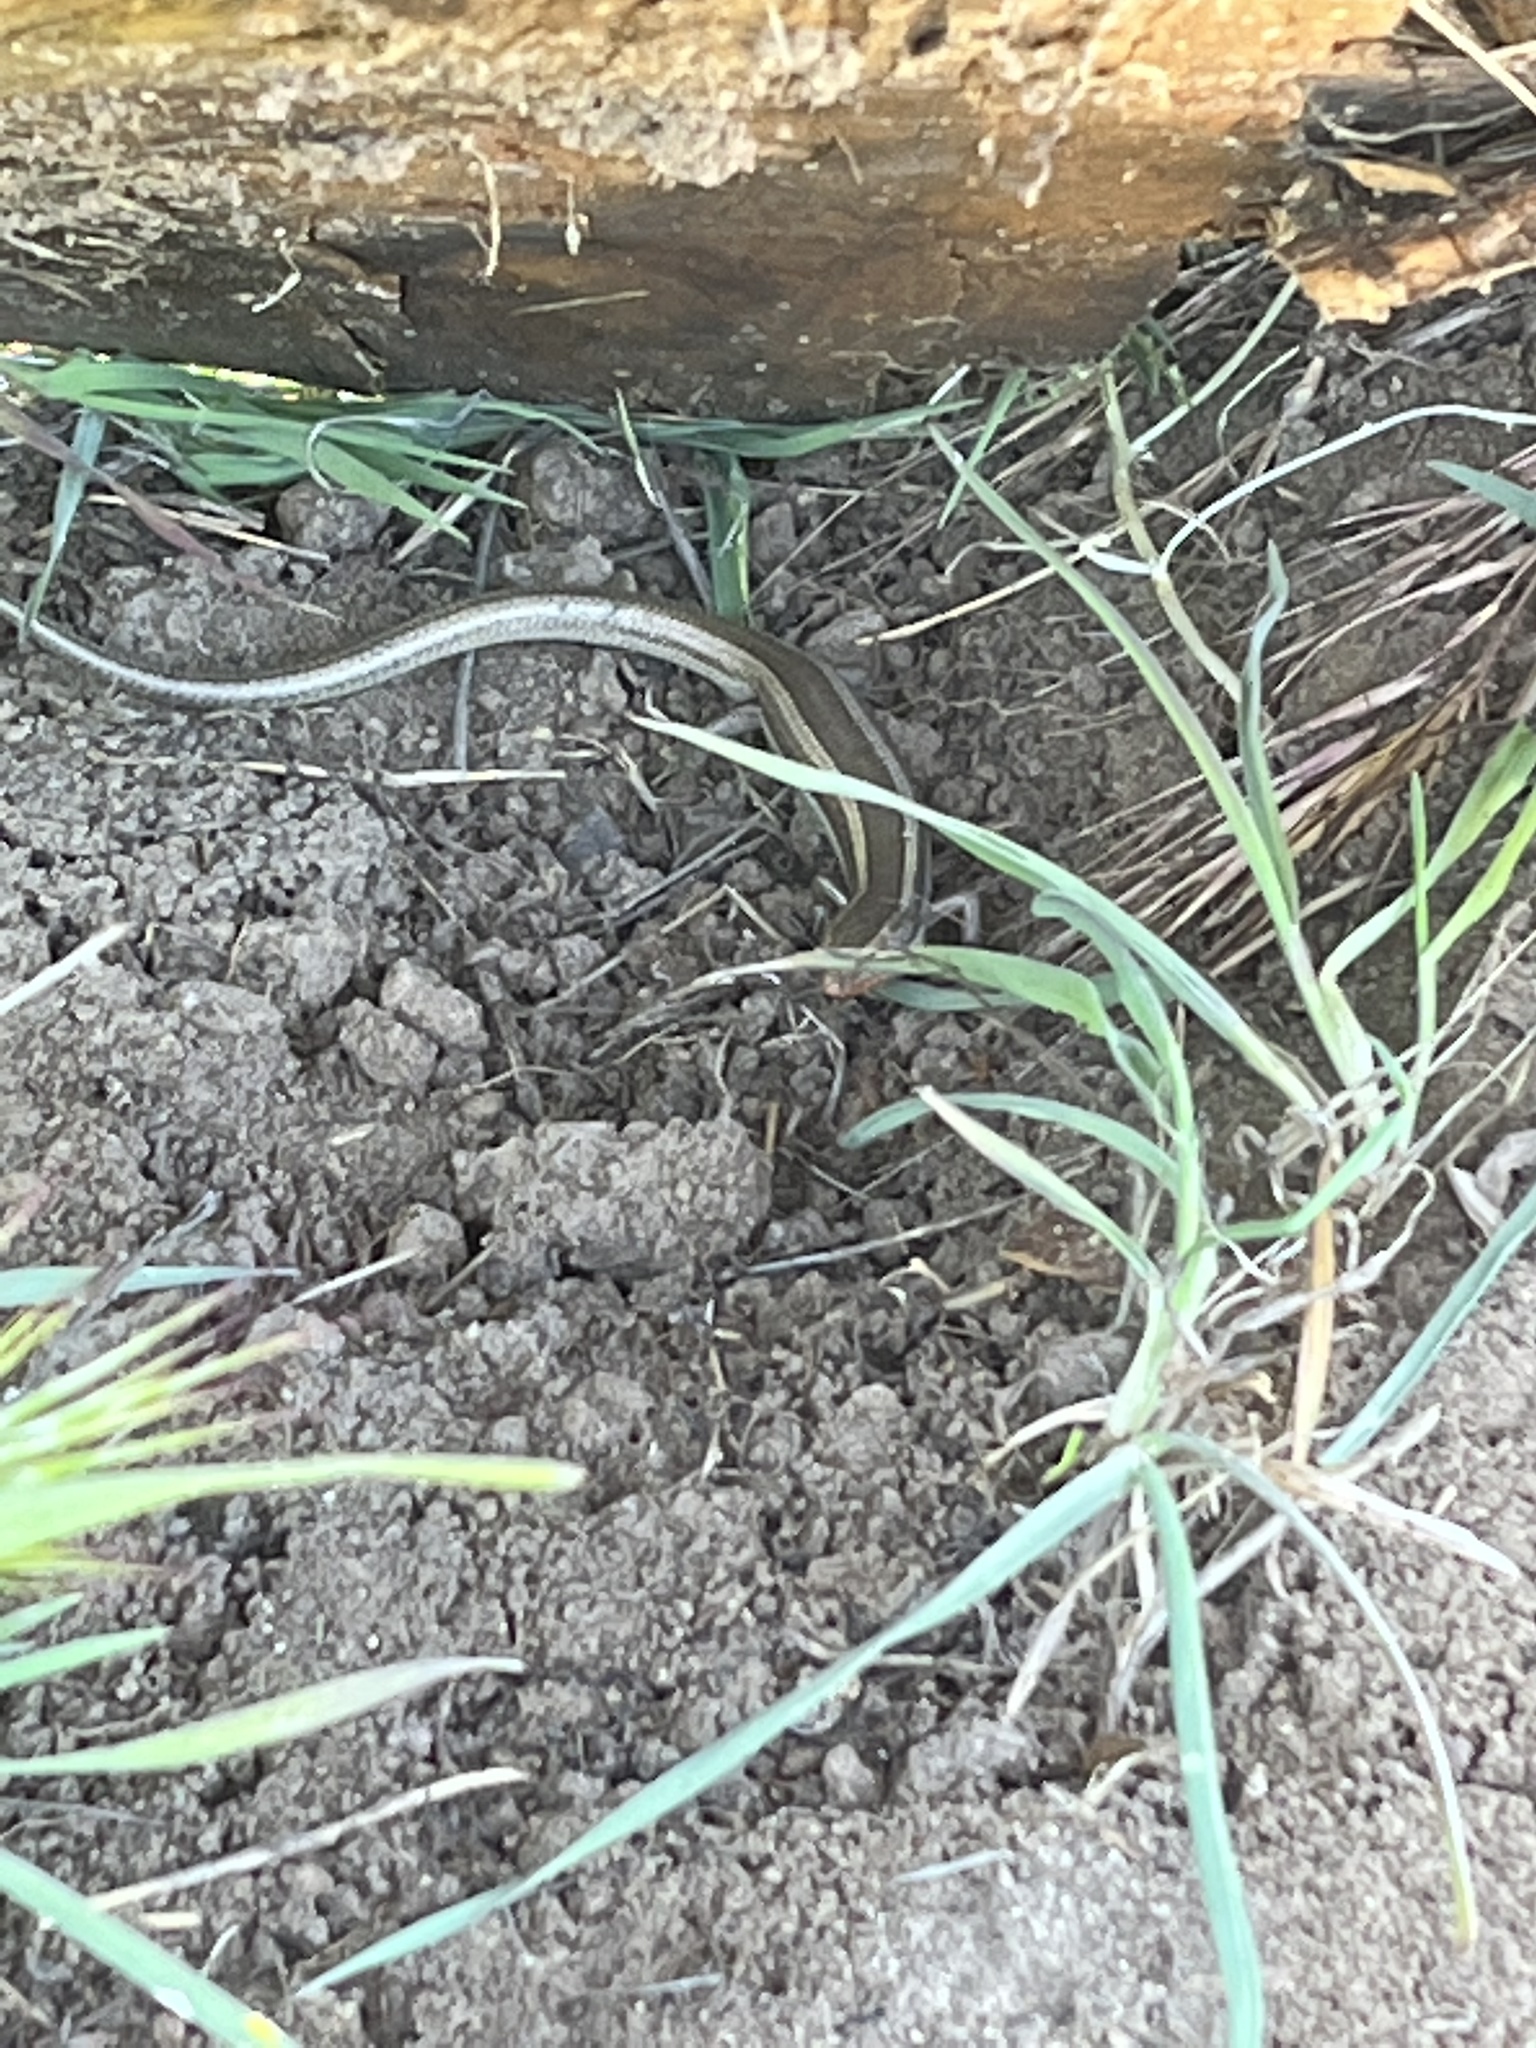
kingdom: Animalia
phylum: Chordata
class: Squamata
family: Scincidae
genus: Plestiodon
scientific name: Plestiodon skiltonianus
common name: Coronado island skink [interparietalis]
